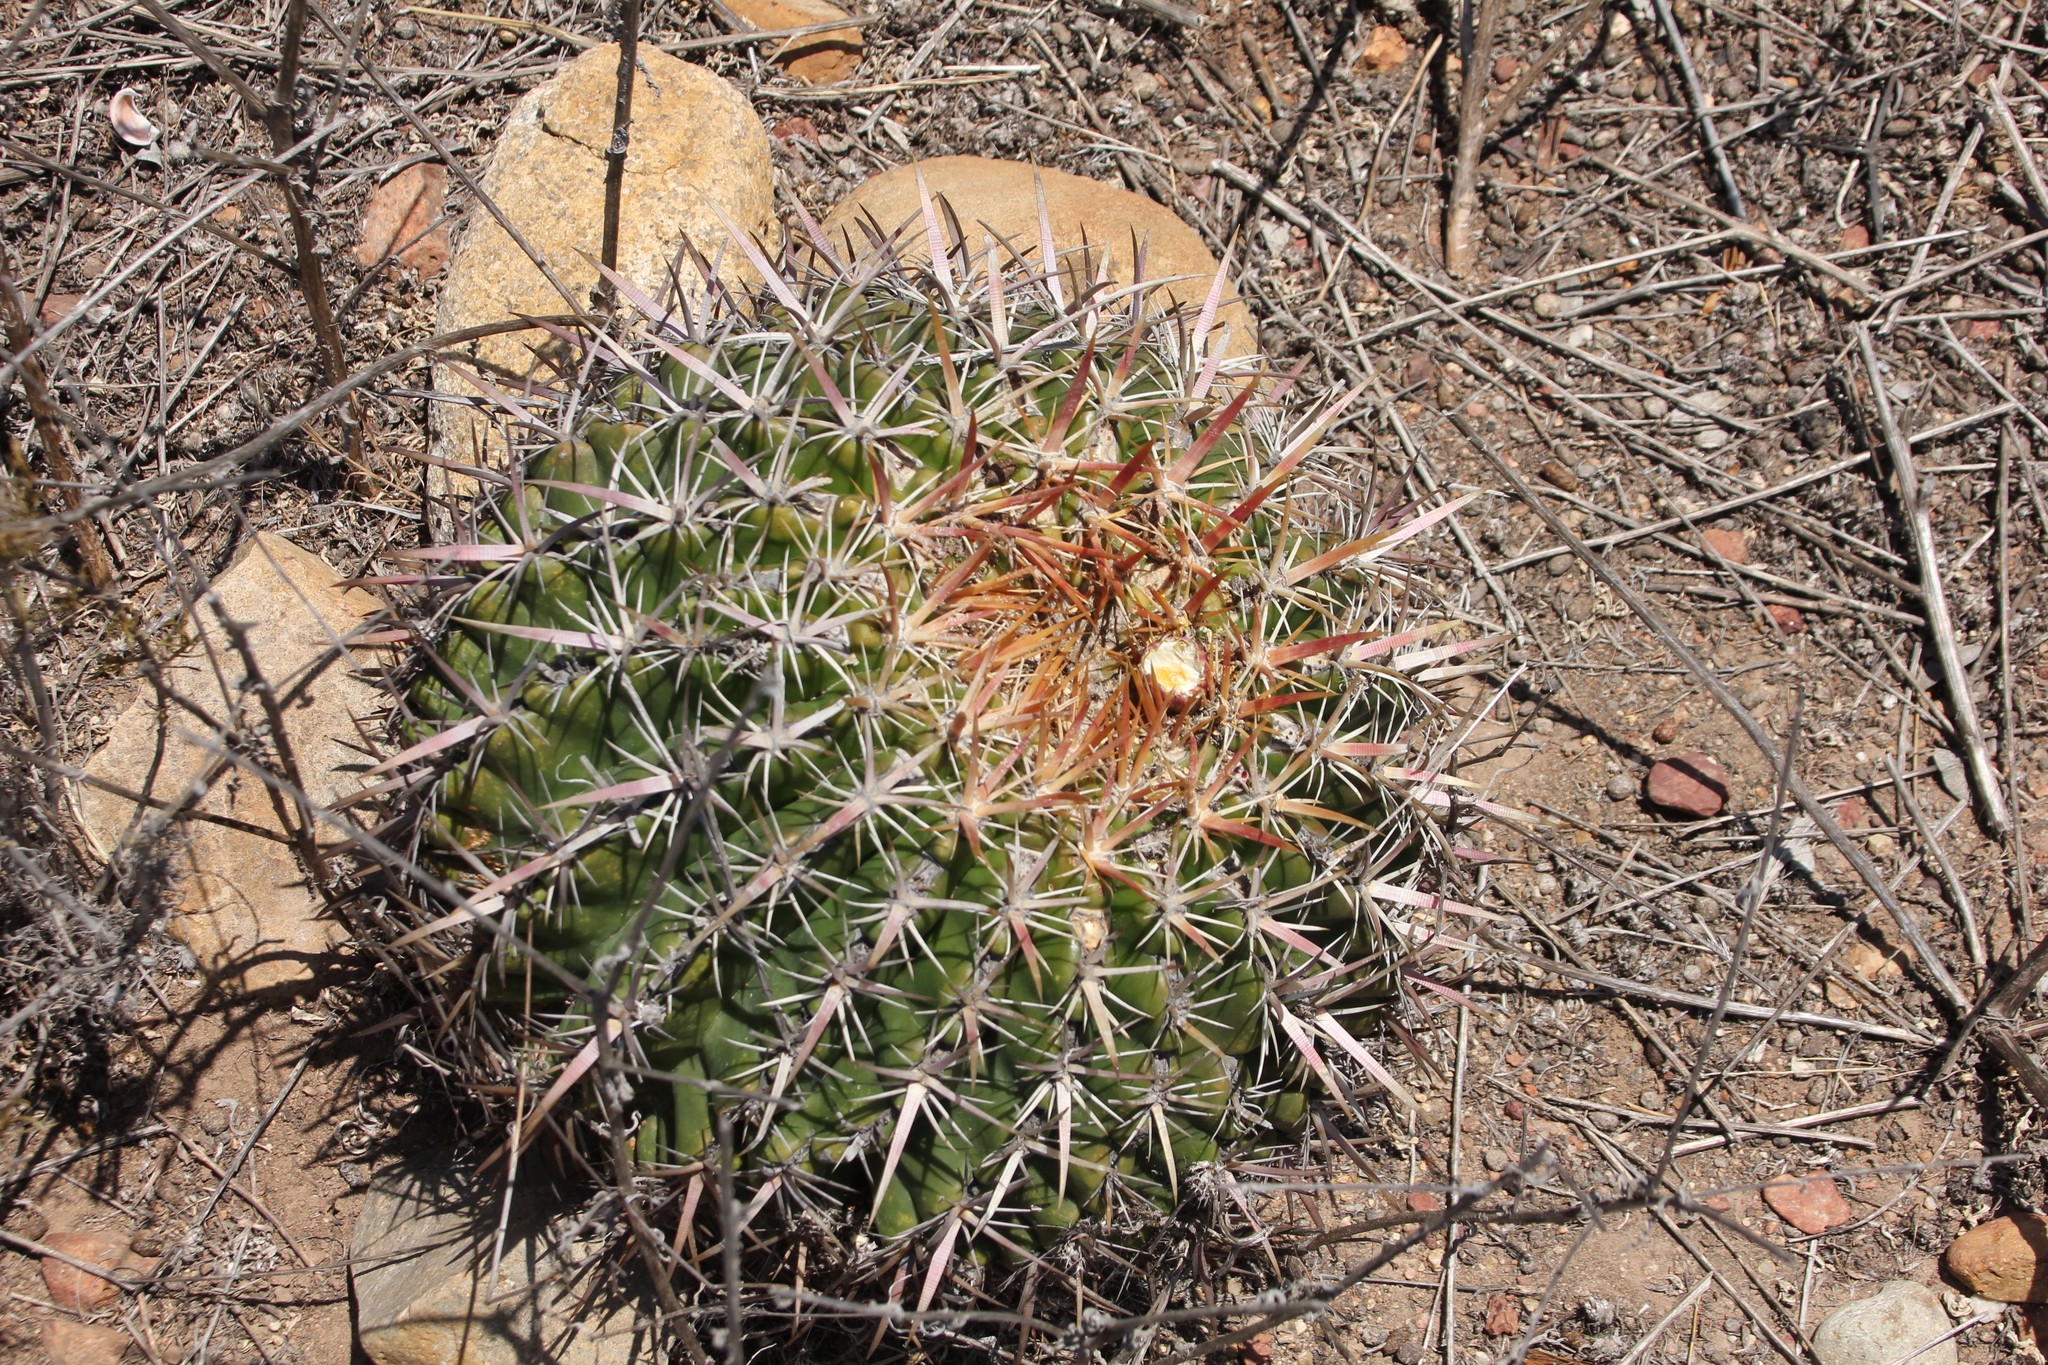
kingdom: Plantae
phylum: Tracheophyta
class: Magnoliopsida
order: Caryophyllales
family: Cactaceae
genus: Ferocactus
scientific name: Ferocactus viridescens
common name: San diego barrel cactus
